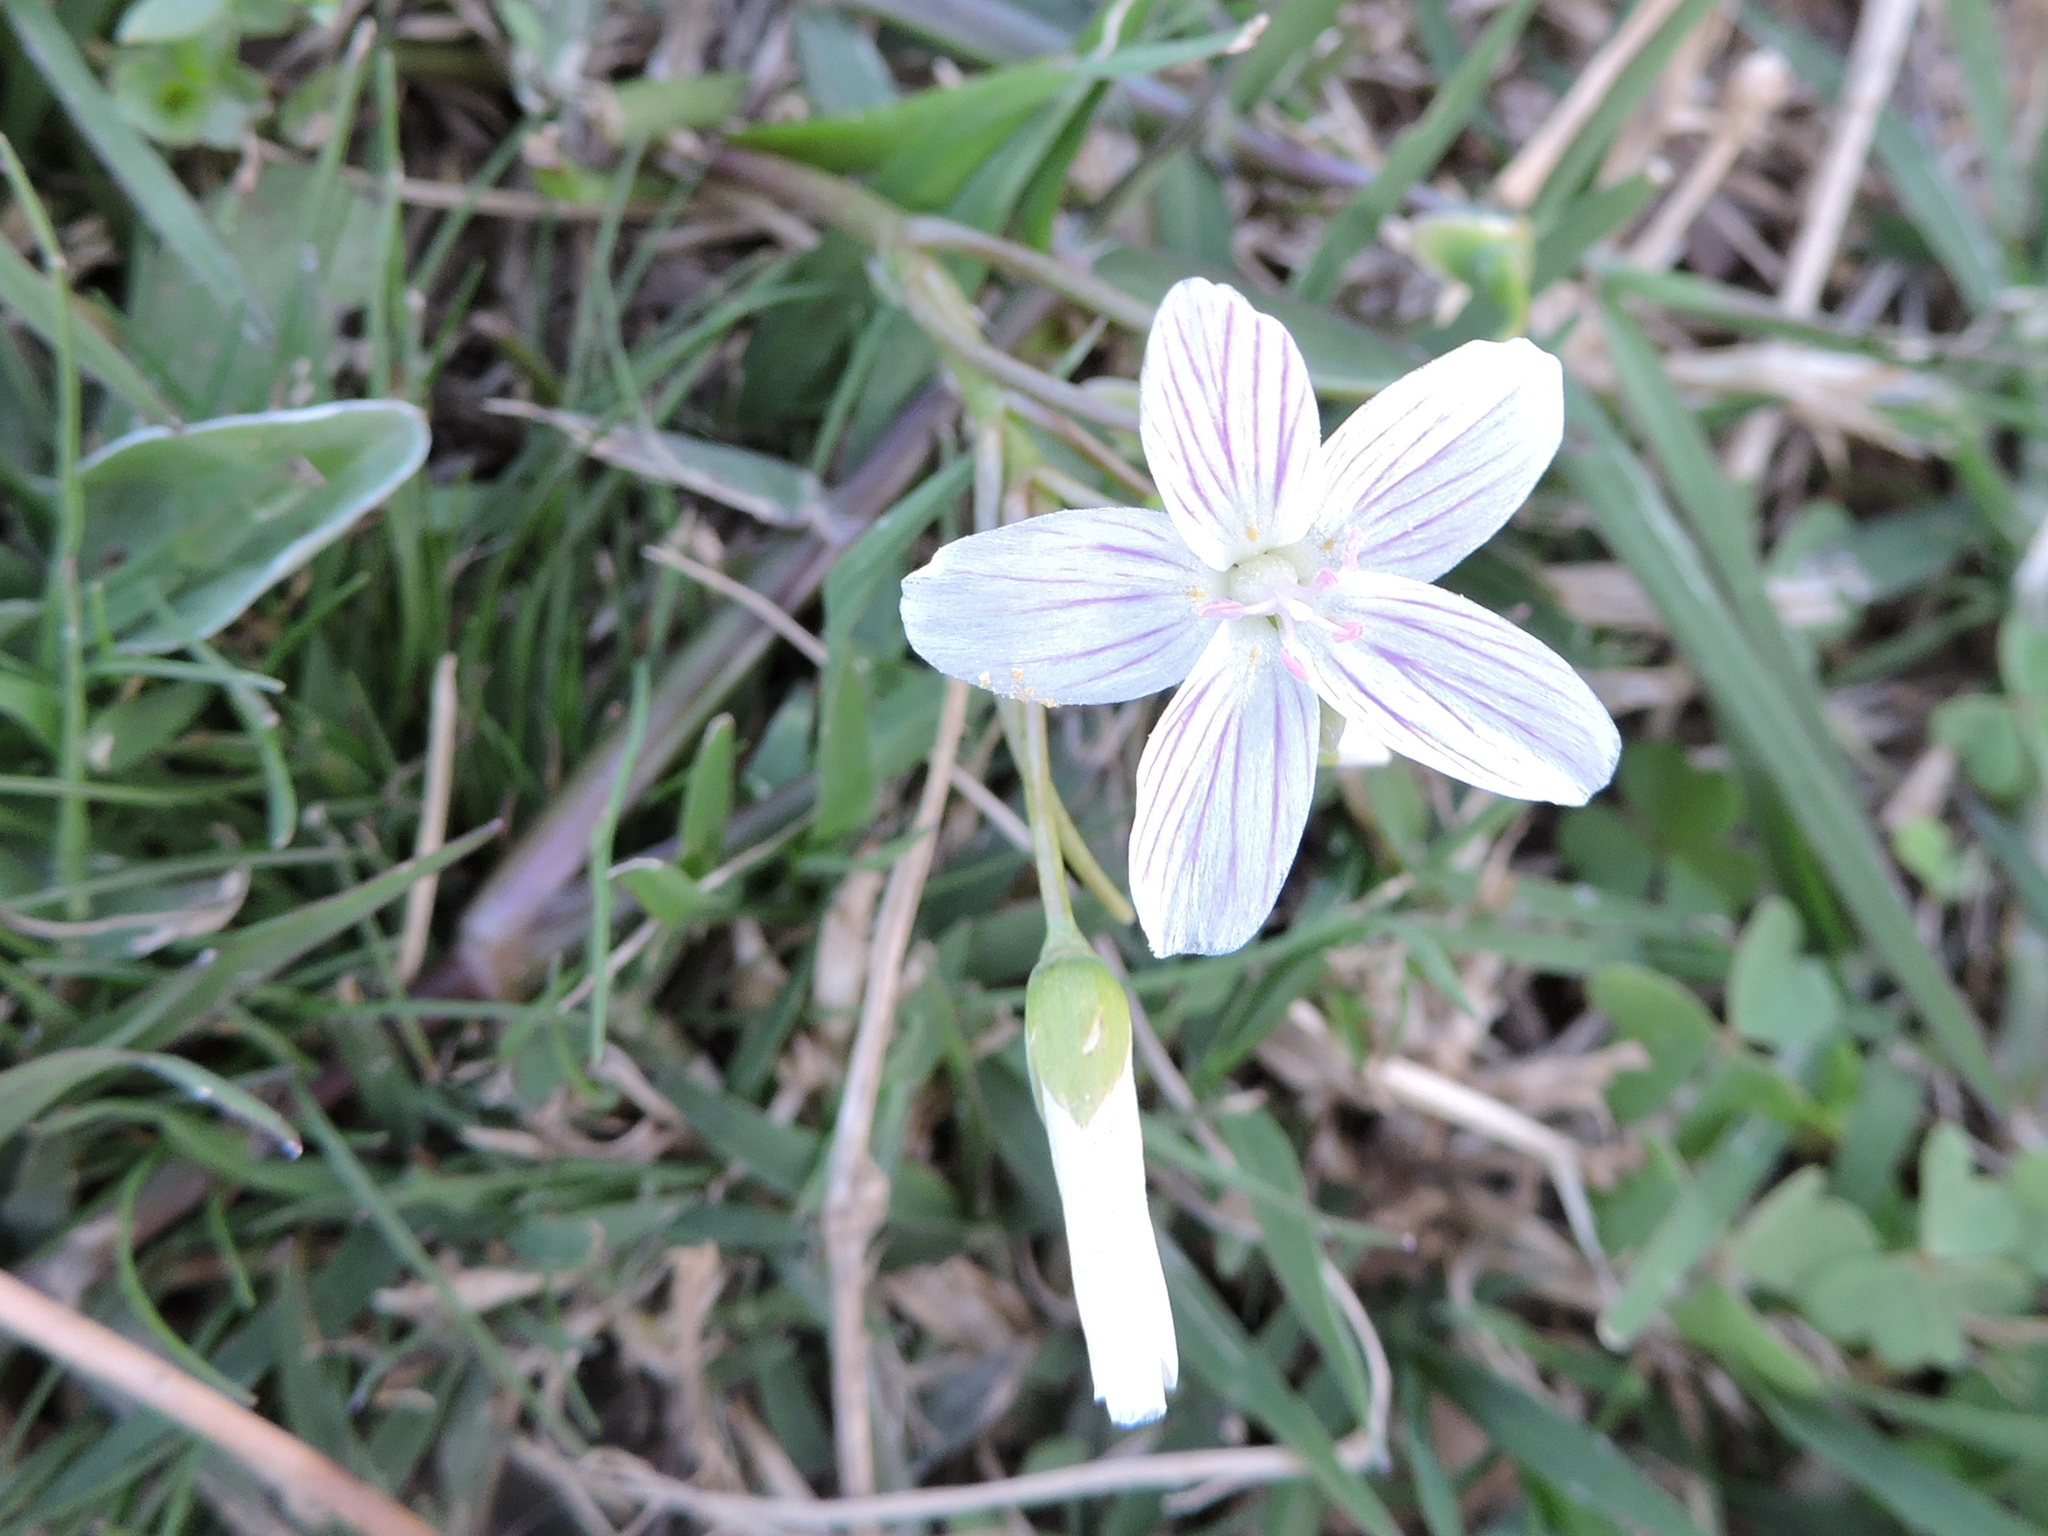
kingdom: Plantae
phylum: Tracheophyta
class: Magnoliopsida
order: Caryophyllales
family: Montiaceae
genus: Claytonia
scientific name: Claytonia virginica
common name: Virginia springbeauty
